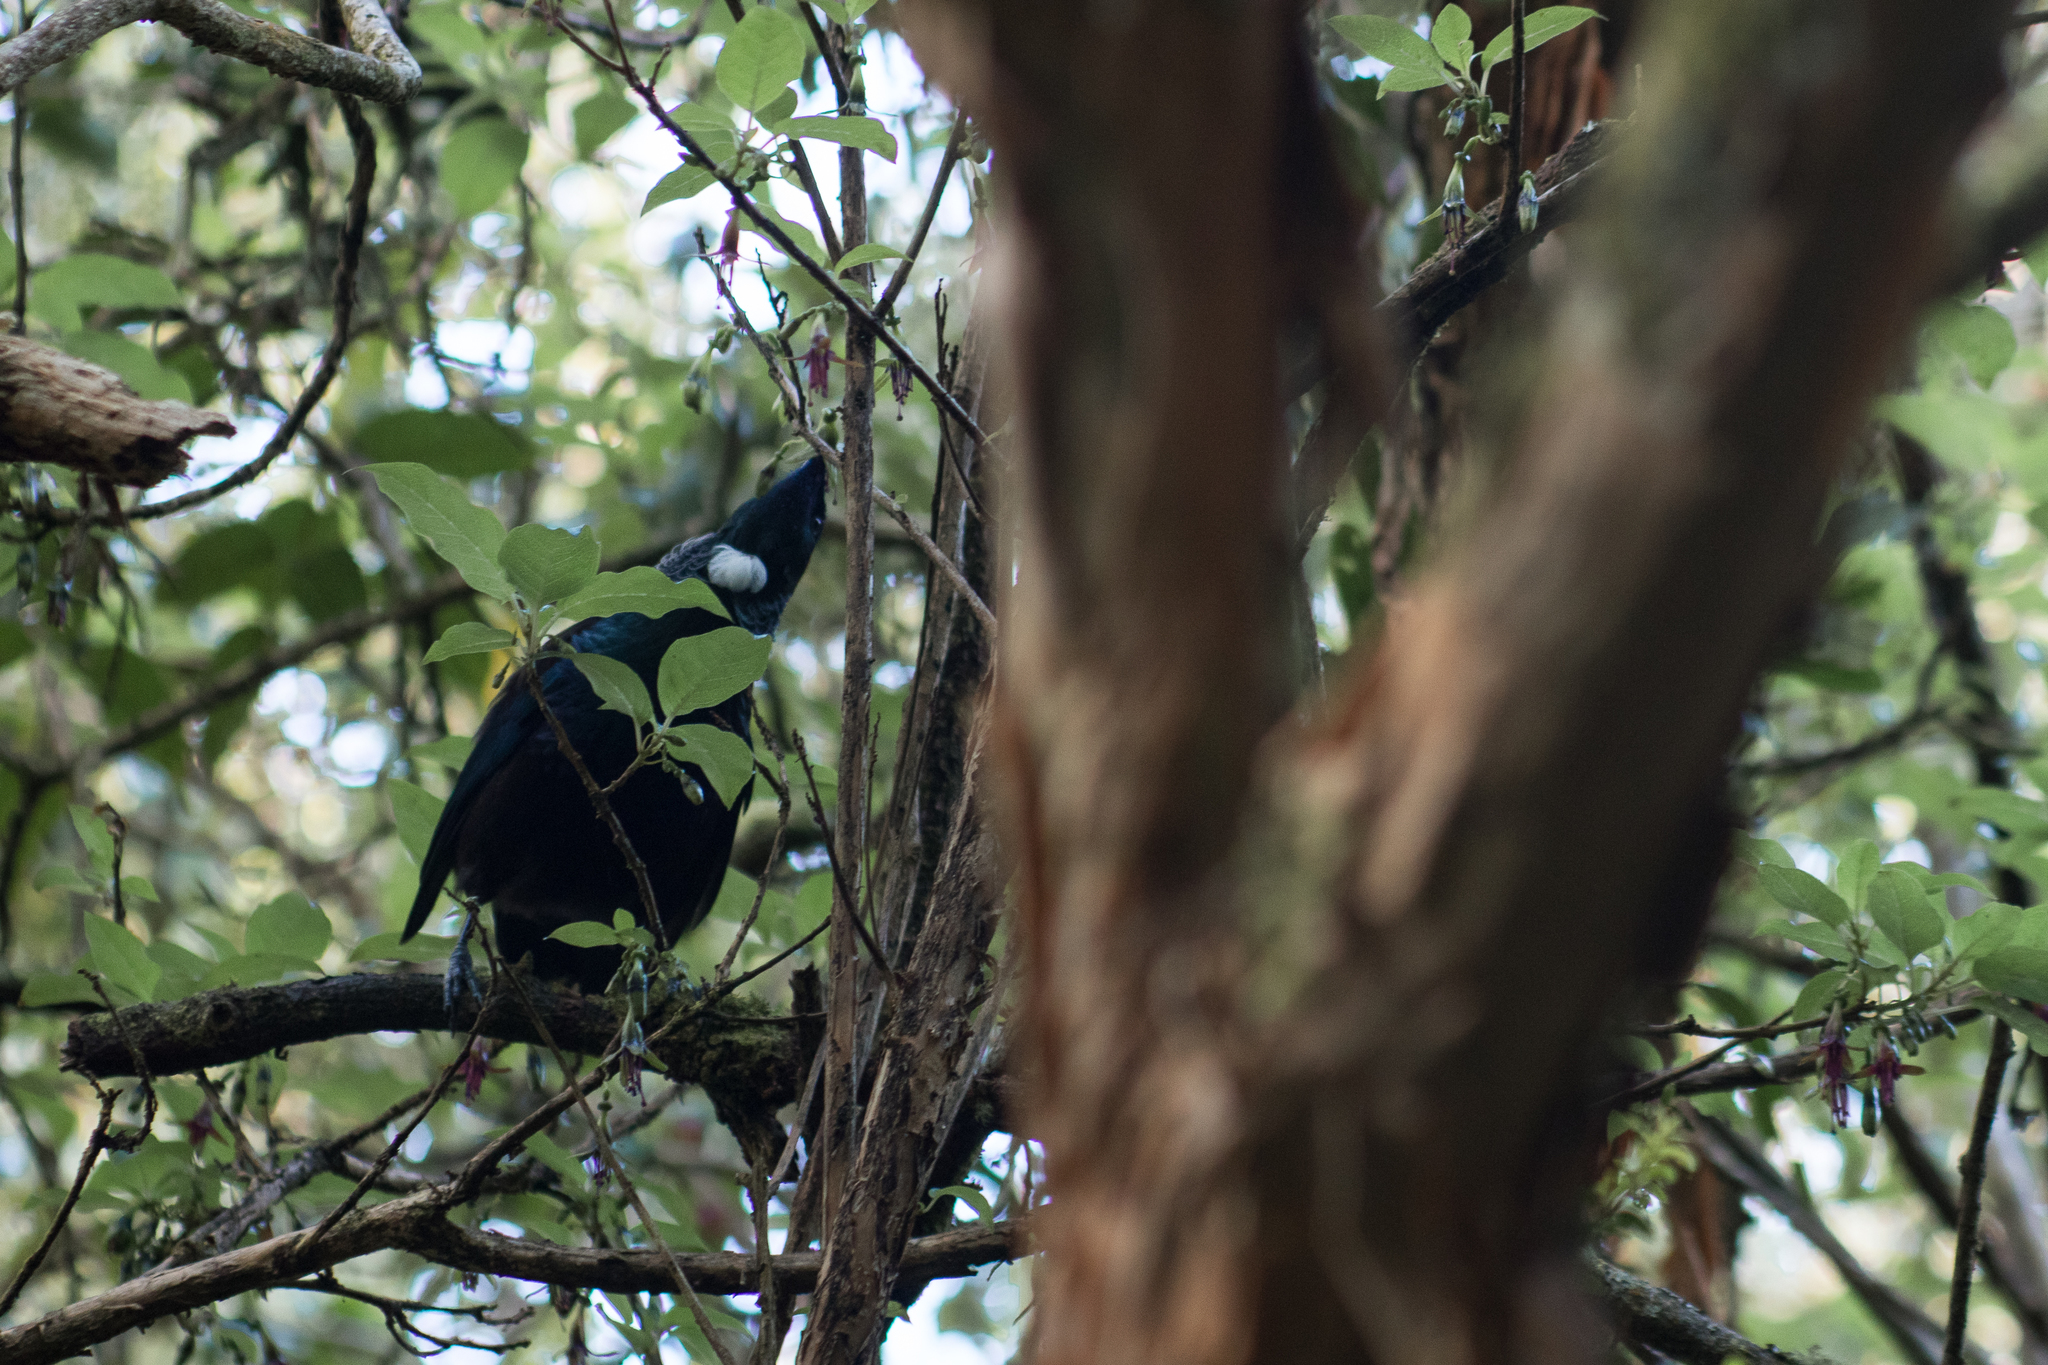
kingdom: Animalia
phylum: Chordata
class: Aves
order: Passeriformes
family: Meliphagidae
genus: Prosthemadera
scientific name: Prosthemadera novaeseelandiae
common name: Tui
